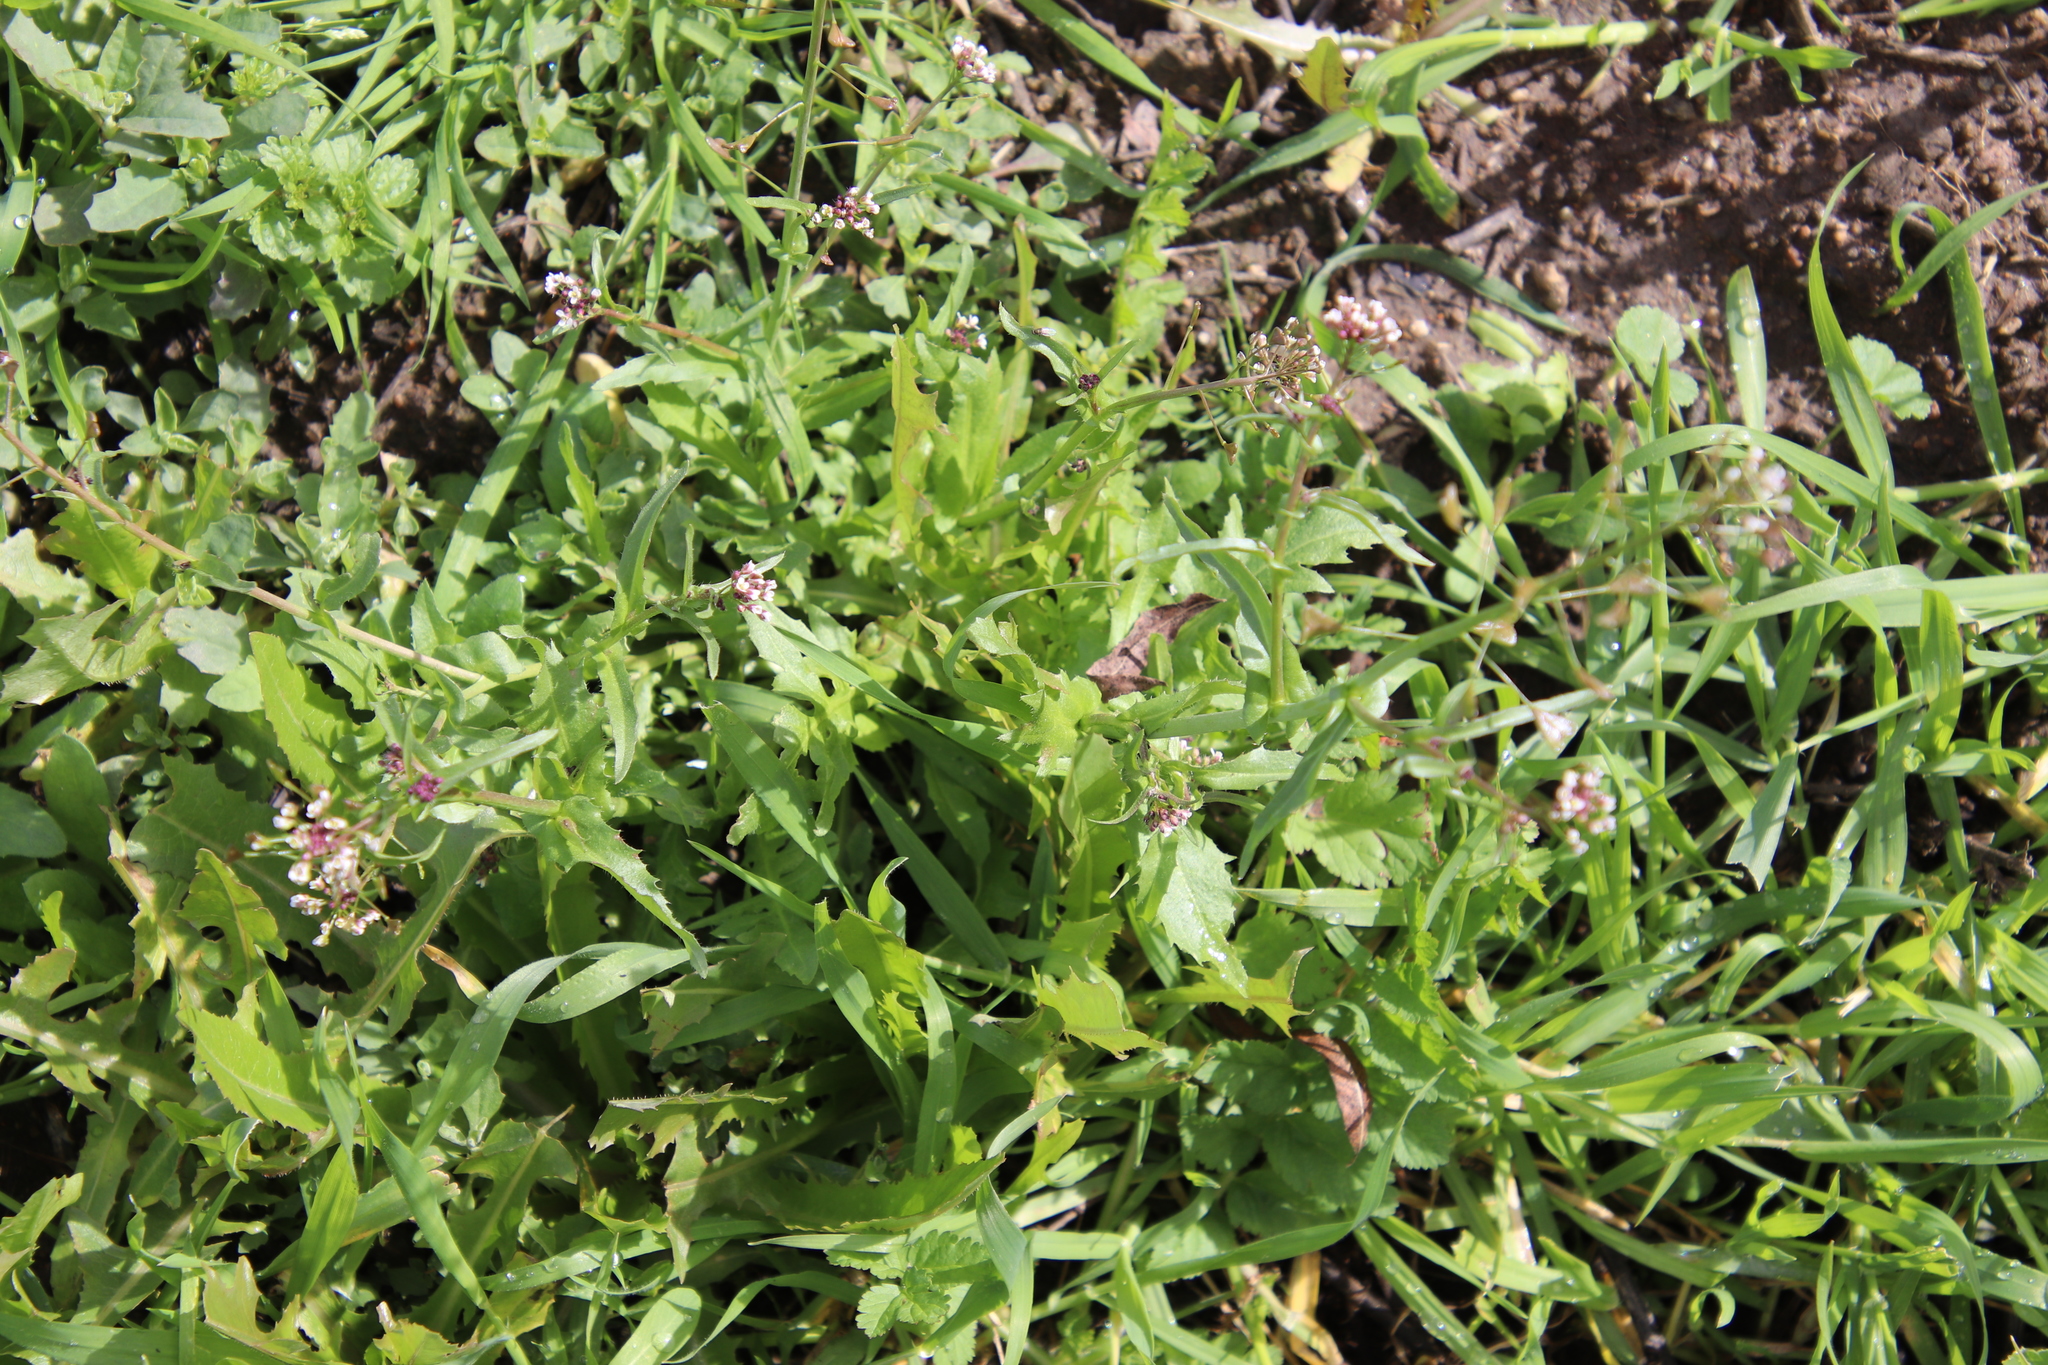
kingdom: Plantae
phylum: Tracheophyta
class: Magnoliopsida
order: Brassicales
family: Brassicaceae
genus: Capsella
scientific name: Capsella bursa-pastoris
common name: Shepherd's purse
